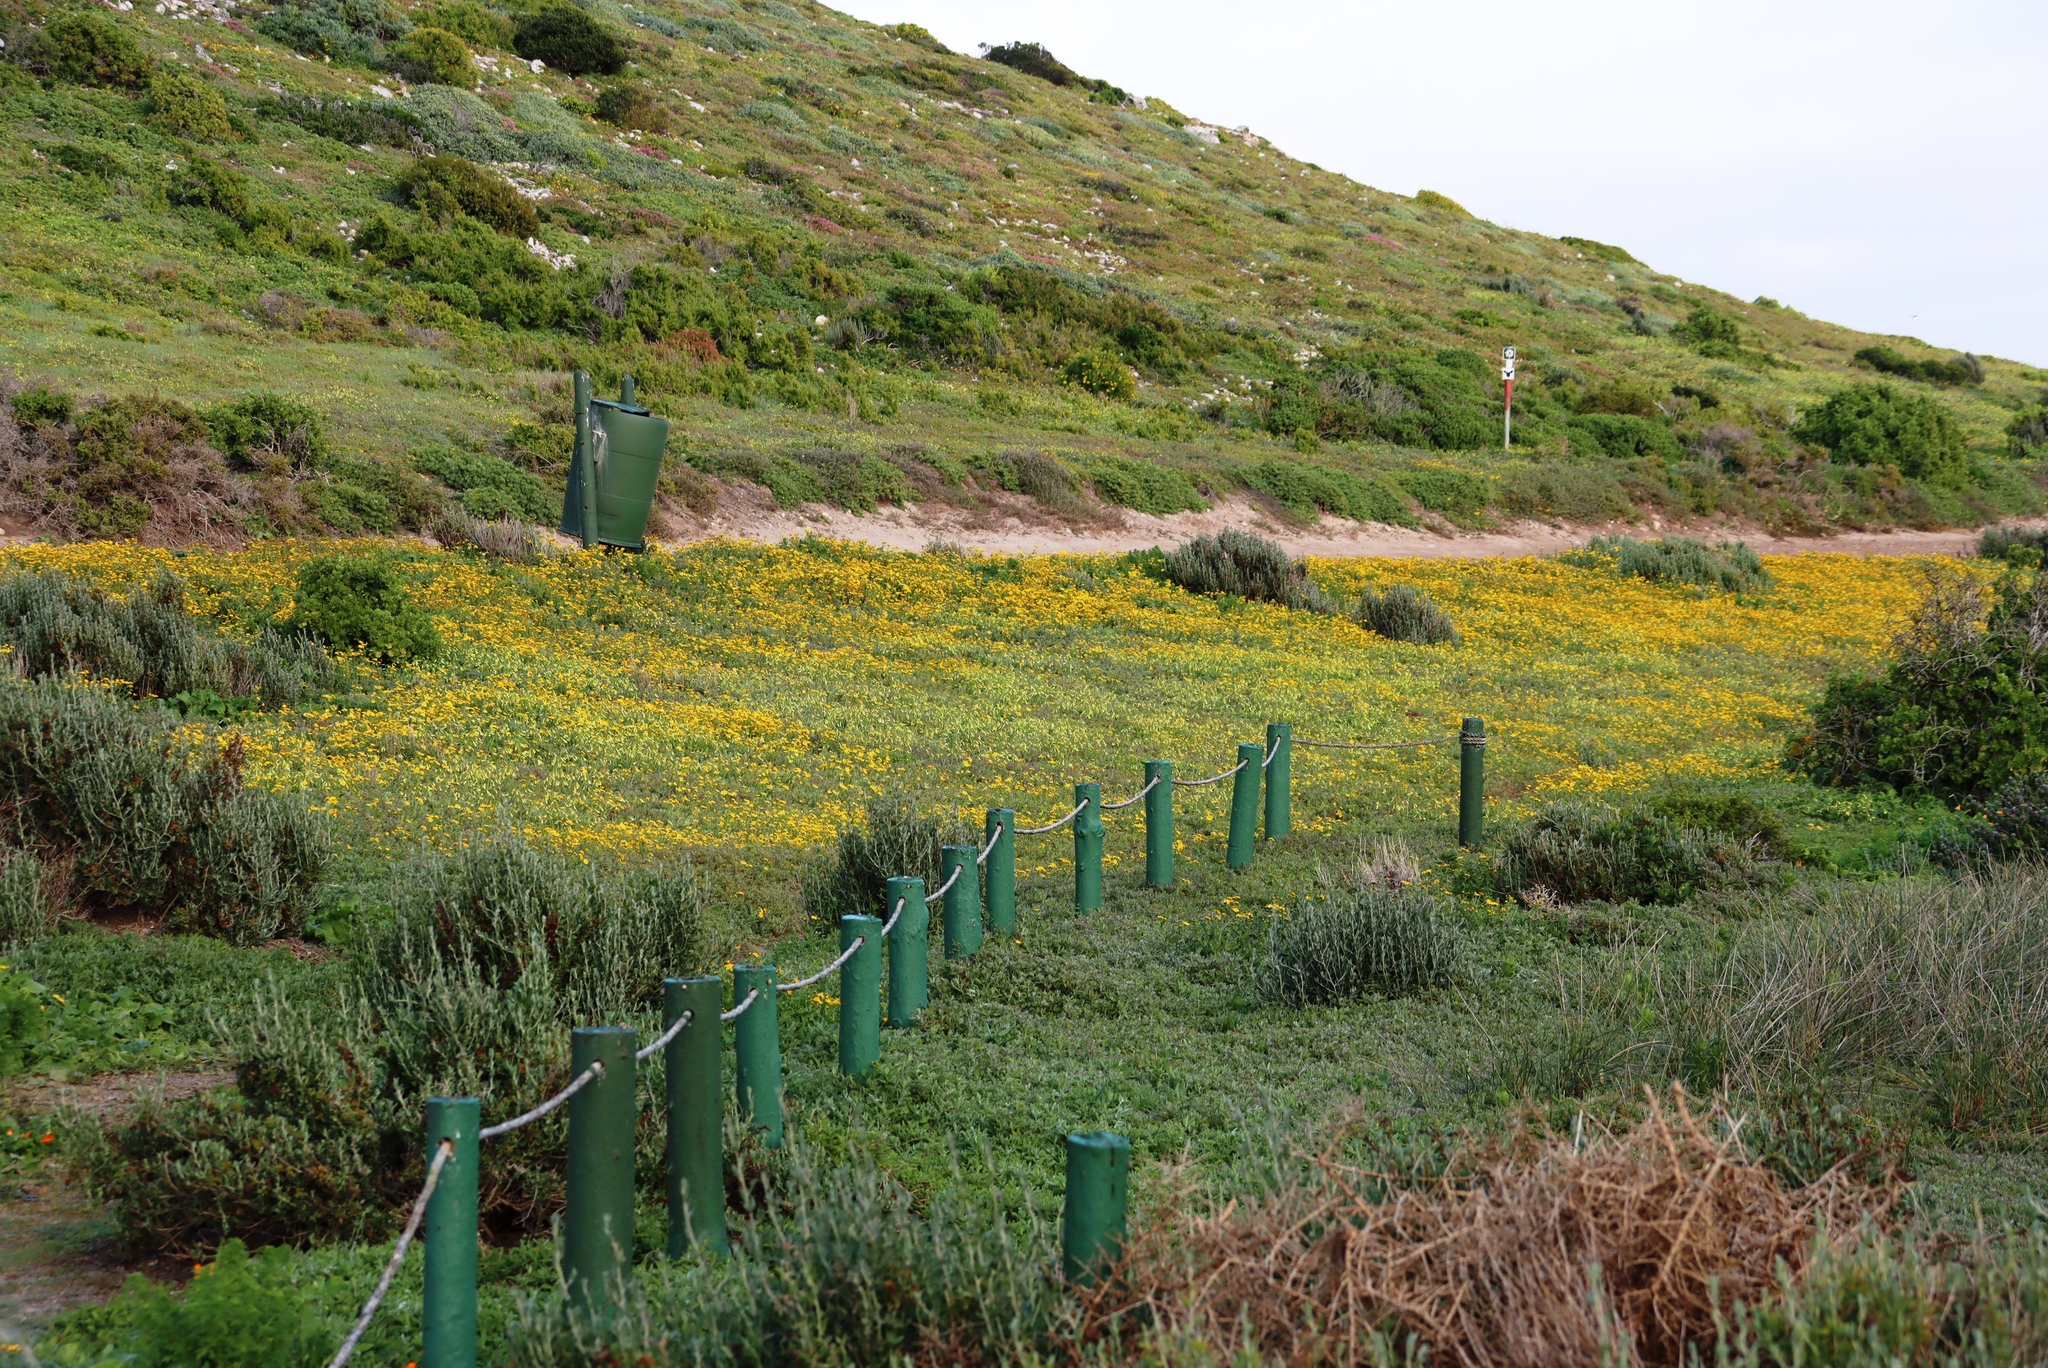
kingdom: Plantae
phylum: Tracheophyta
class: Magnoliopsida
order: Oxalidales
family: Oxalidaceae
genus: Oxalis
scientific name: Oxalis pes-caprae
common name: Bermuda-buttercup
